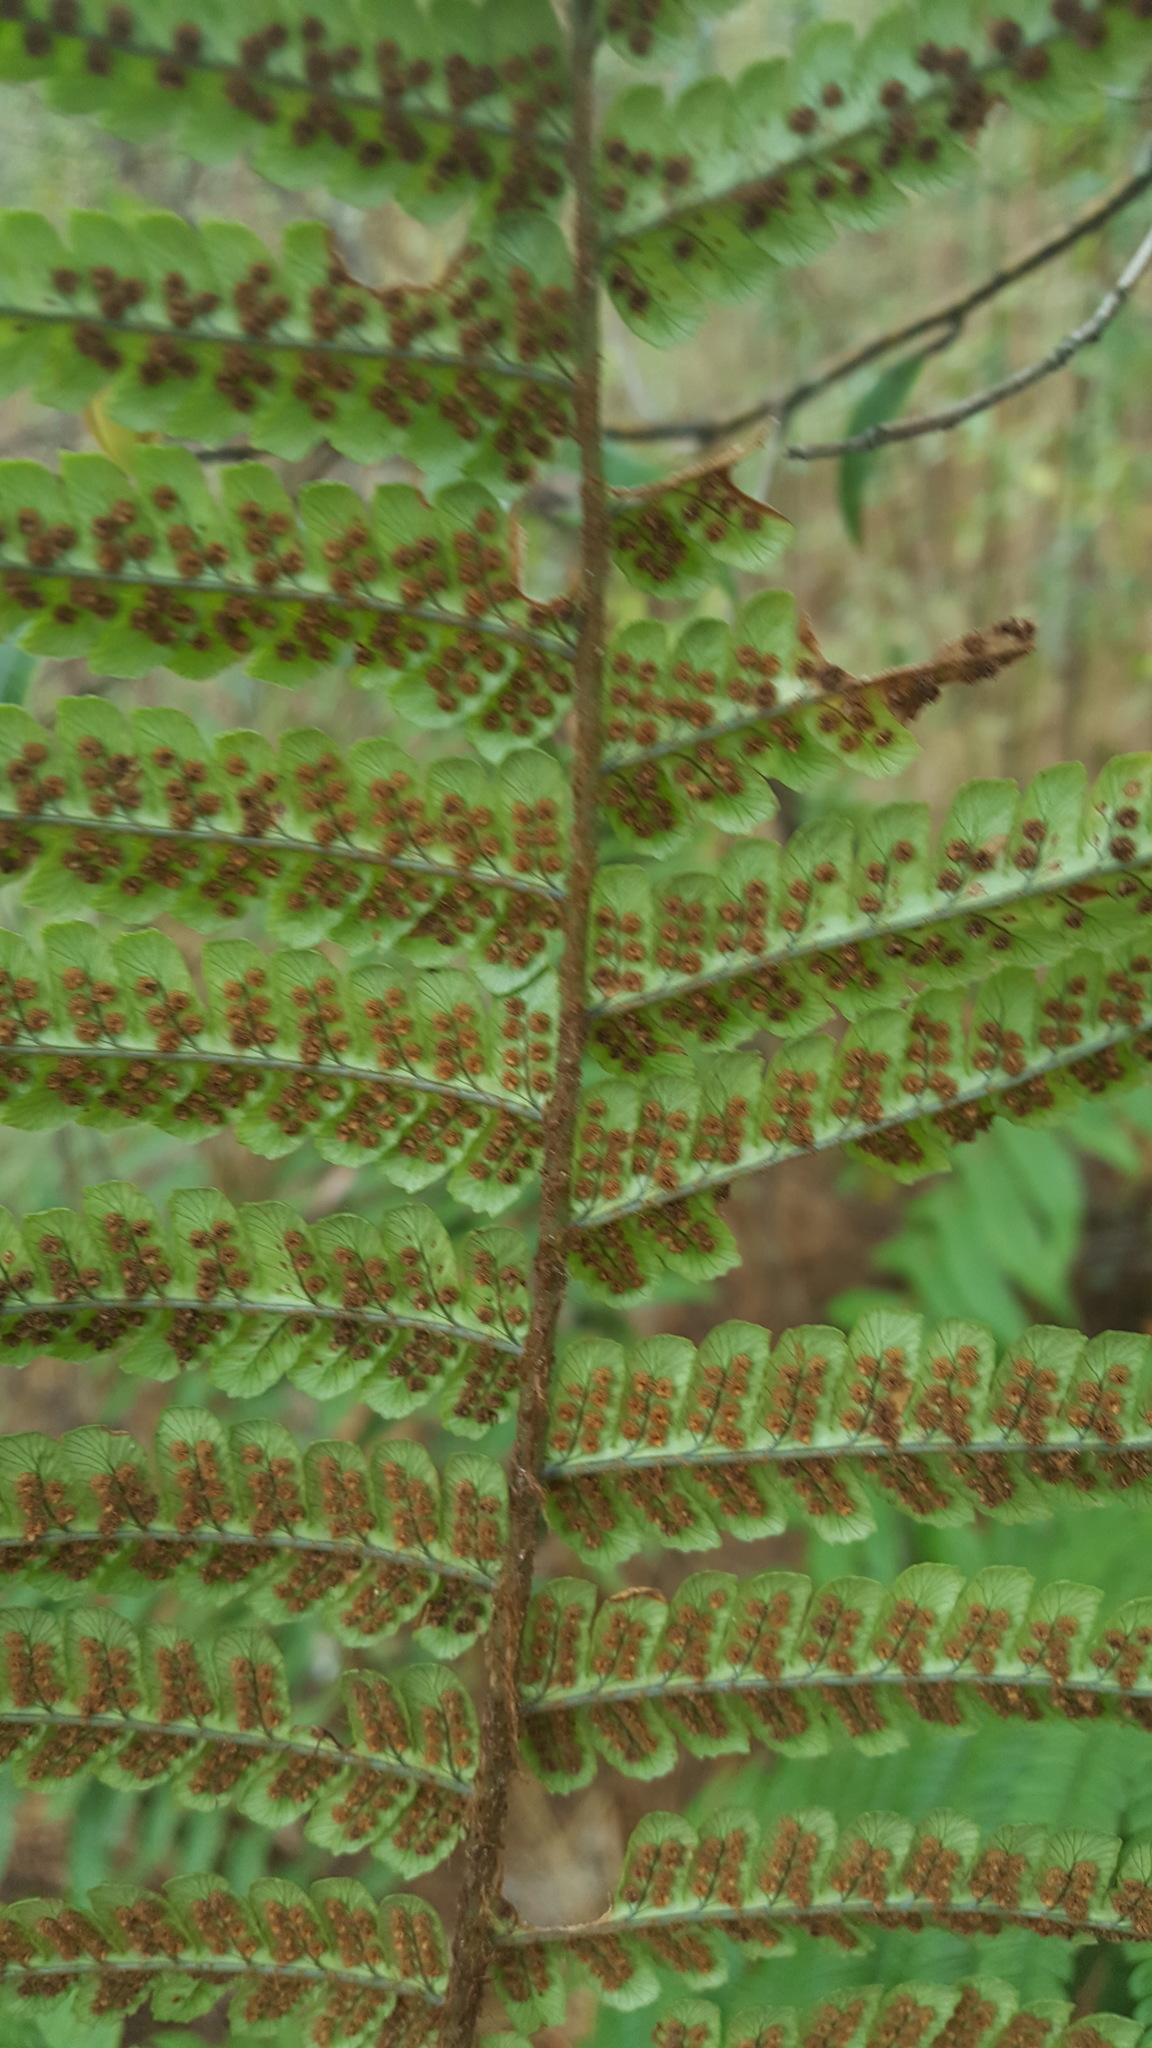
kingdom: Plantae
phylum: Tracheophyta
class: Polypodiopsida
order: Polypodiales
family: Dryopteridaceae
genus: Dryopteris
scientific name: Dryopteris wallichiana
